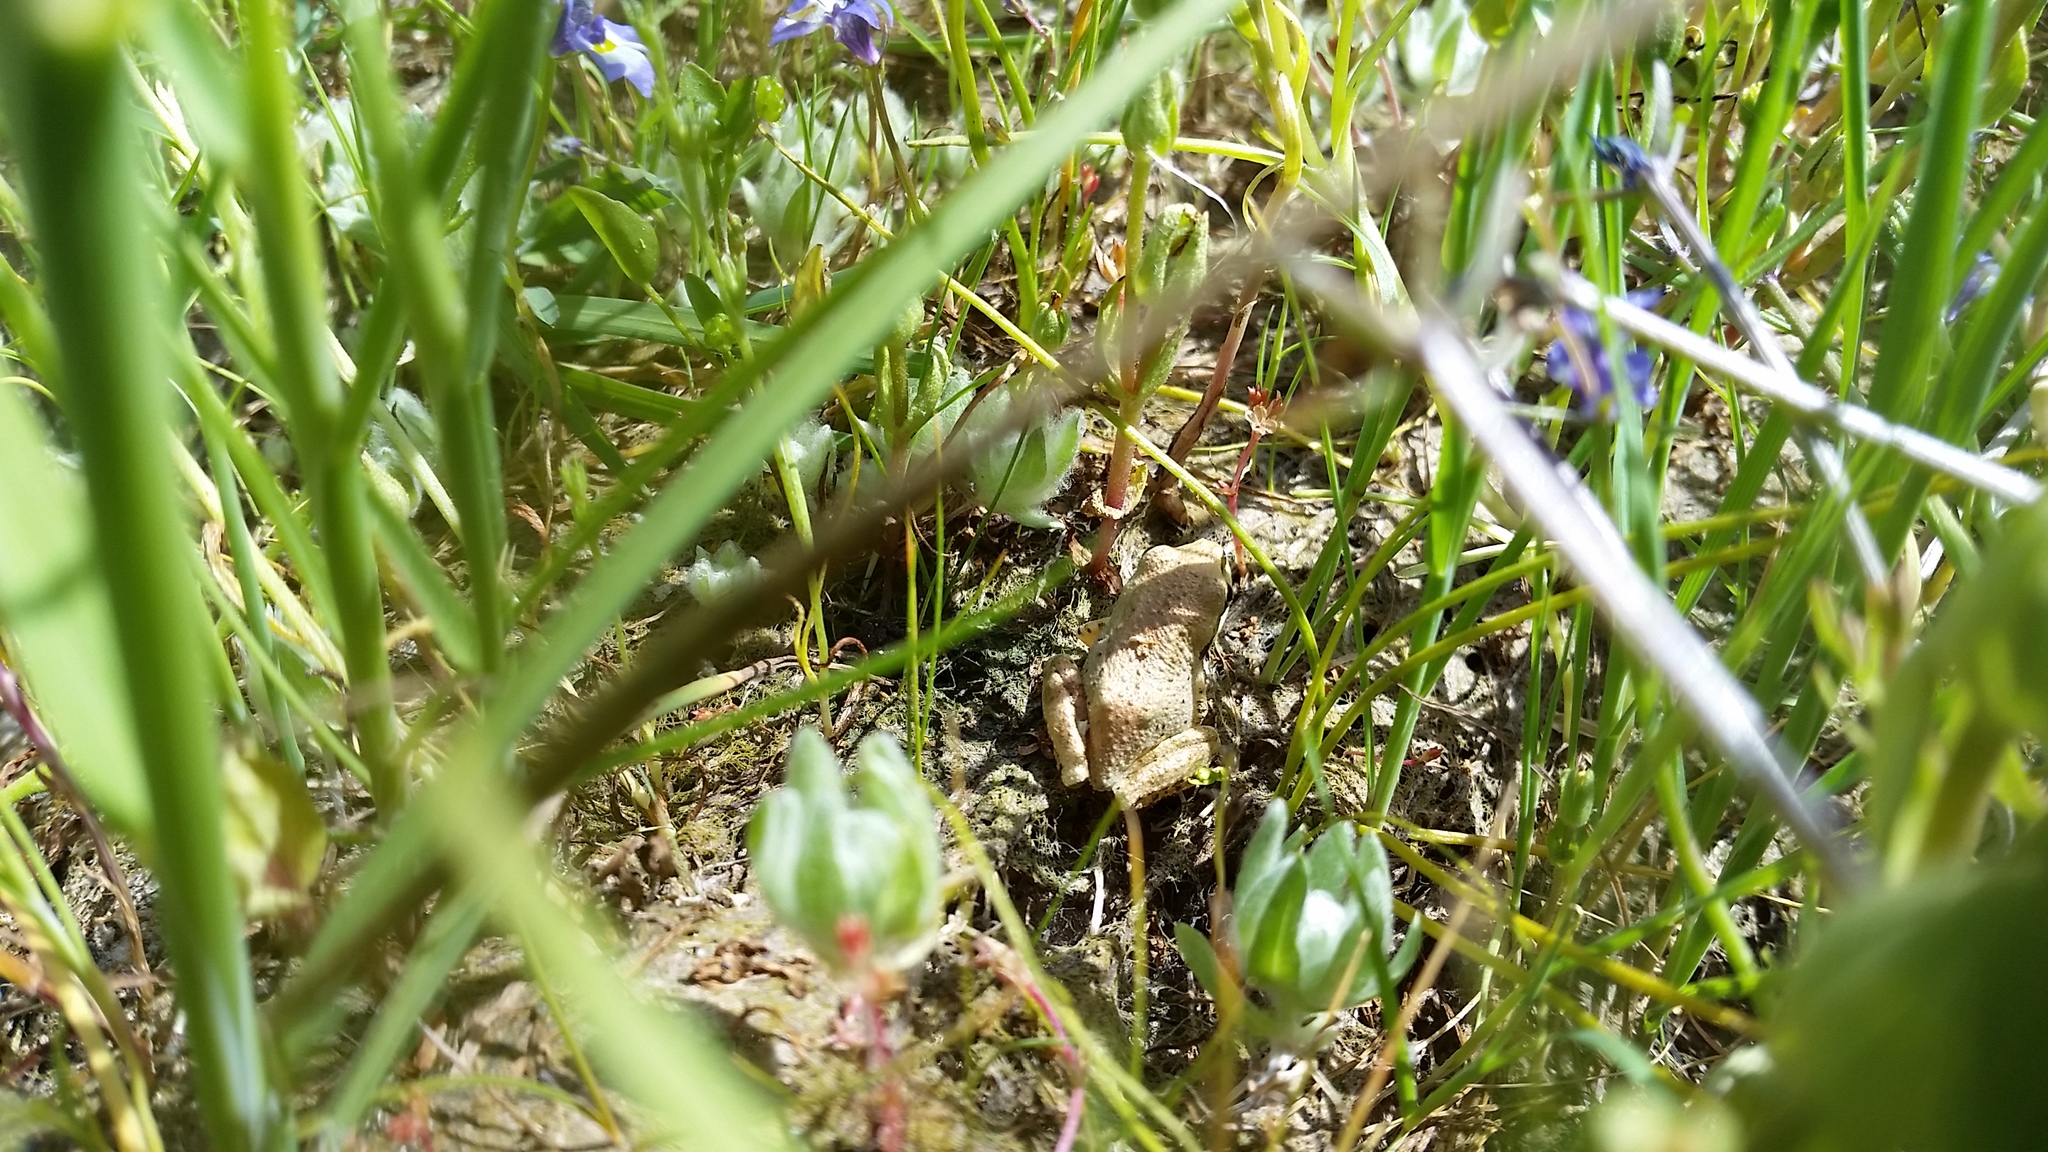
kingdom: Animalia
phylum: Chordata
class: Amphibia
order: Anura
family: Hylidae
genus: Pseudacris
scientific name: Pseudacris regilla
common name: Pacific chorus frog
